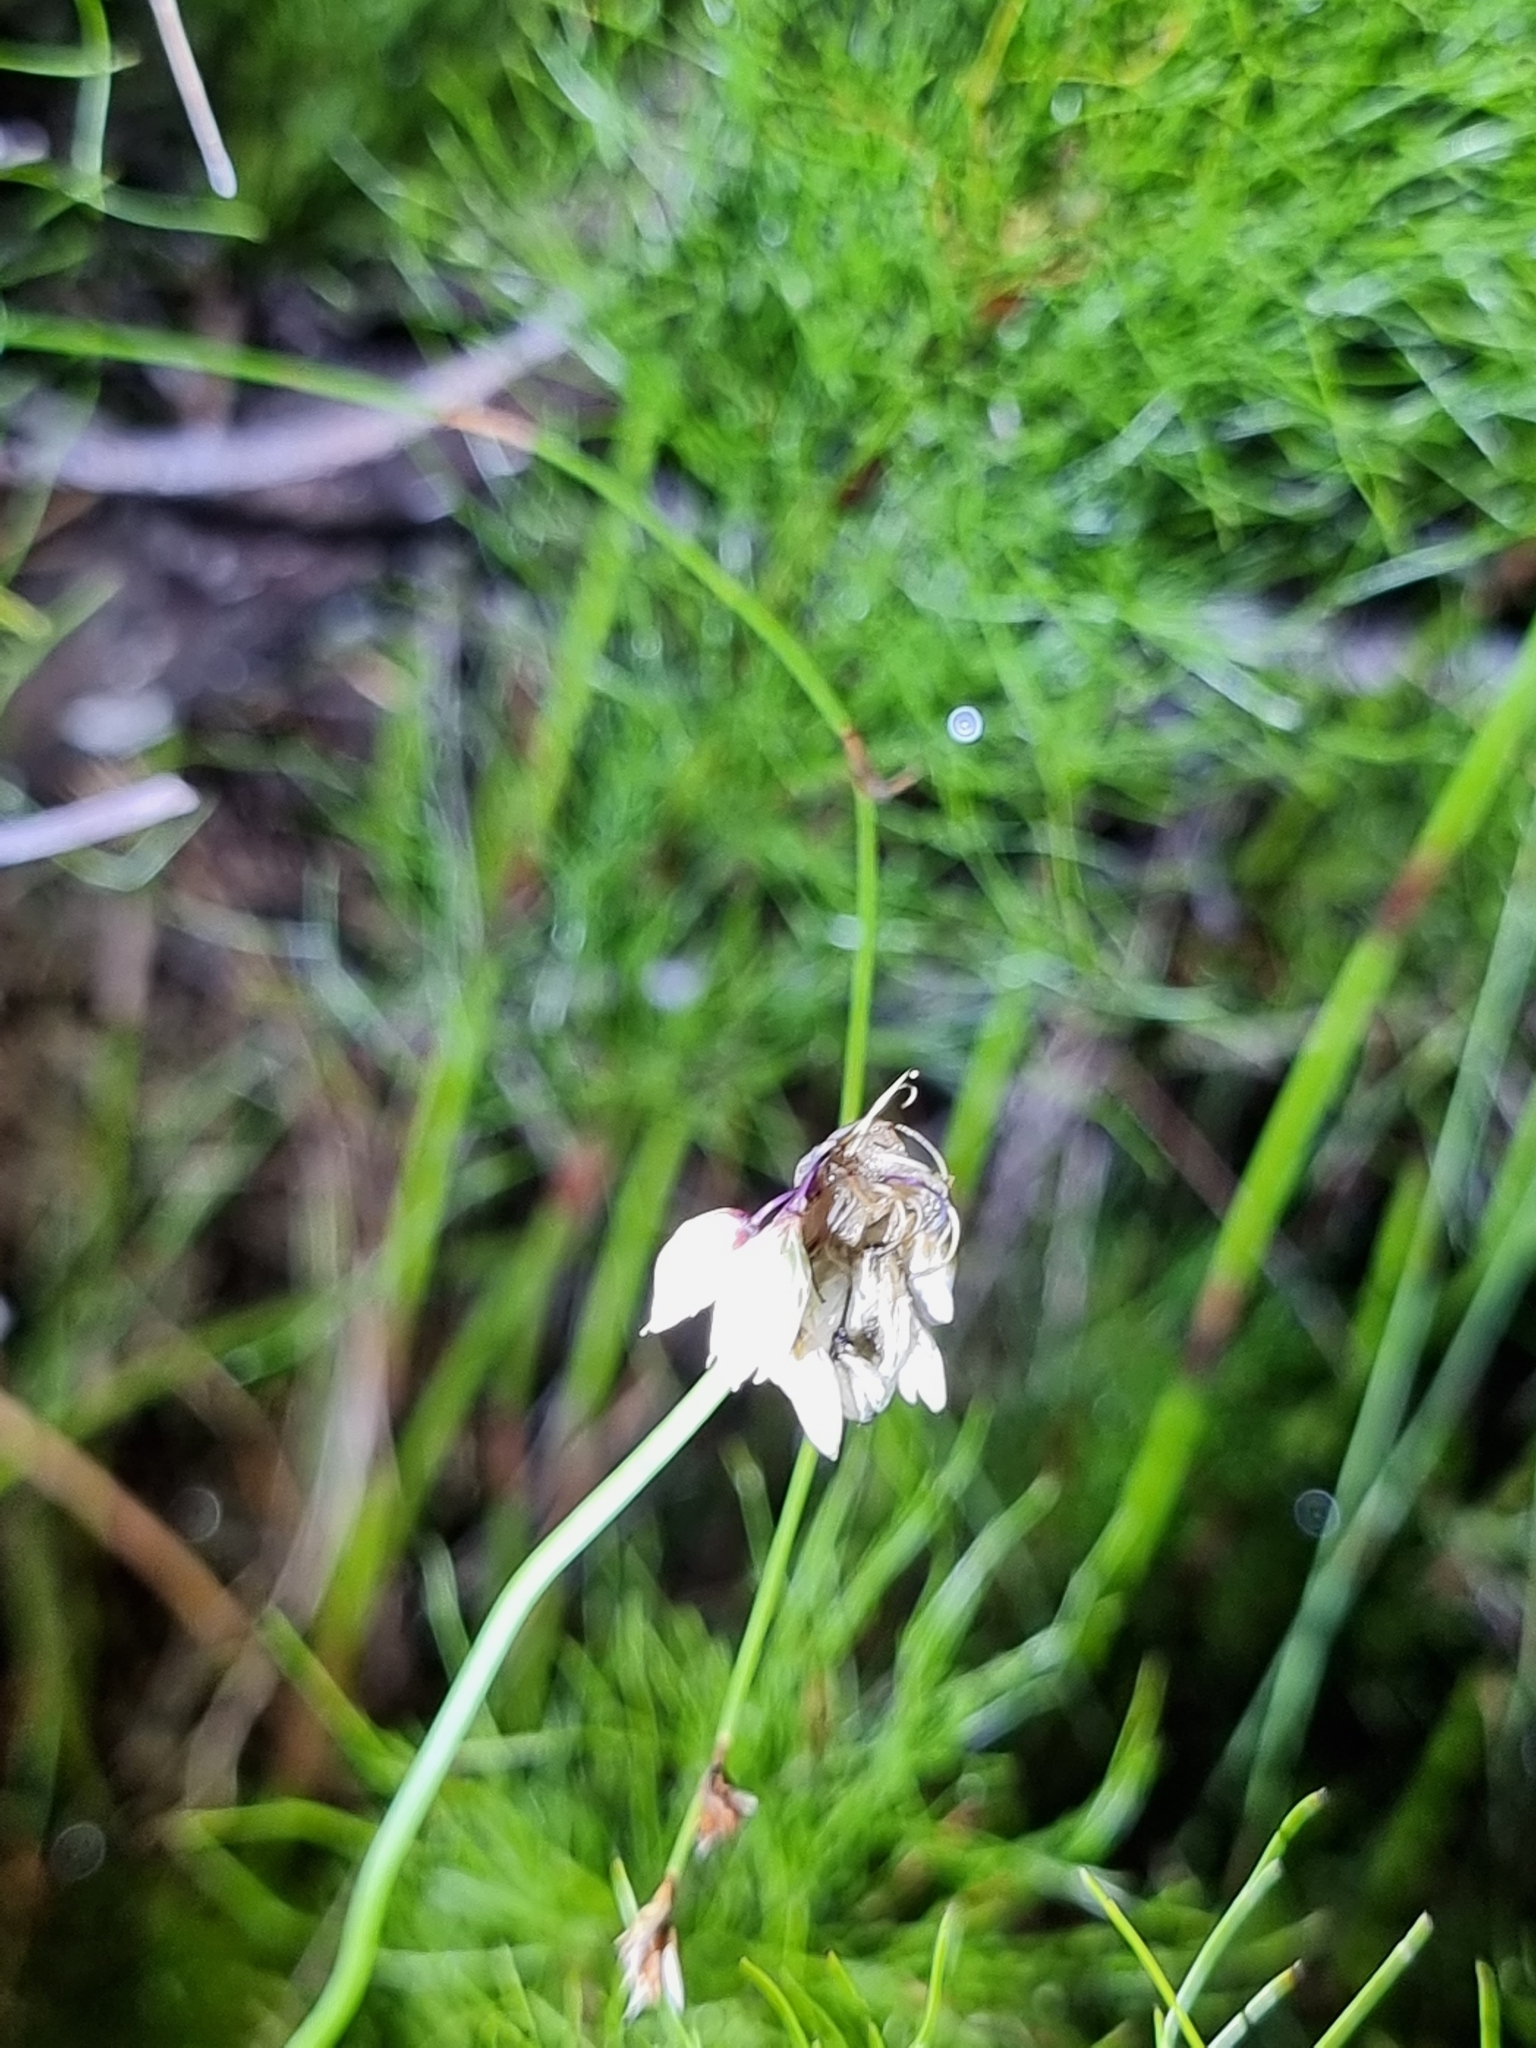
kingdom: Plantae
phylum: Tracheophyta
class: Liliopsida
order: Asparagales
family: Asparagaceae
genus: Sowerbaea
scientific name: Sowerbaea juncea
